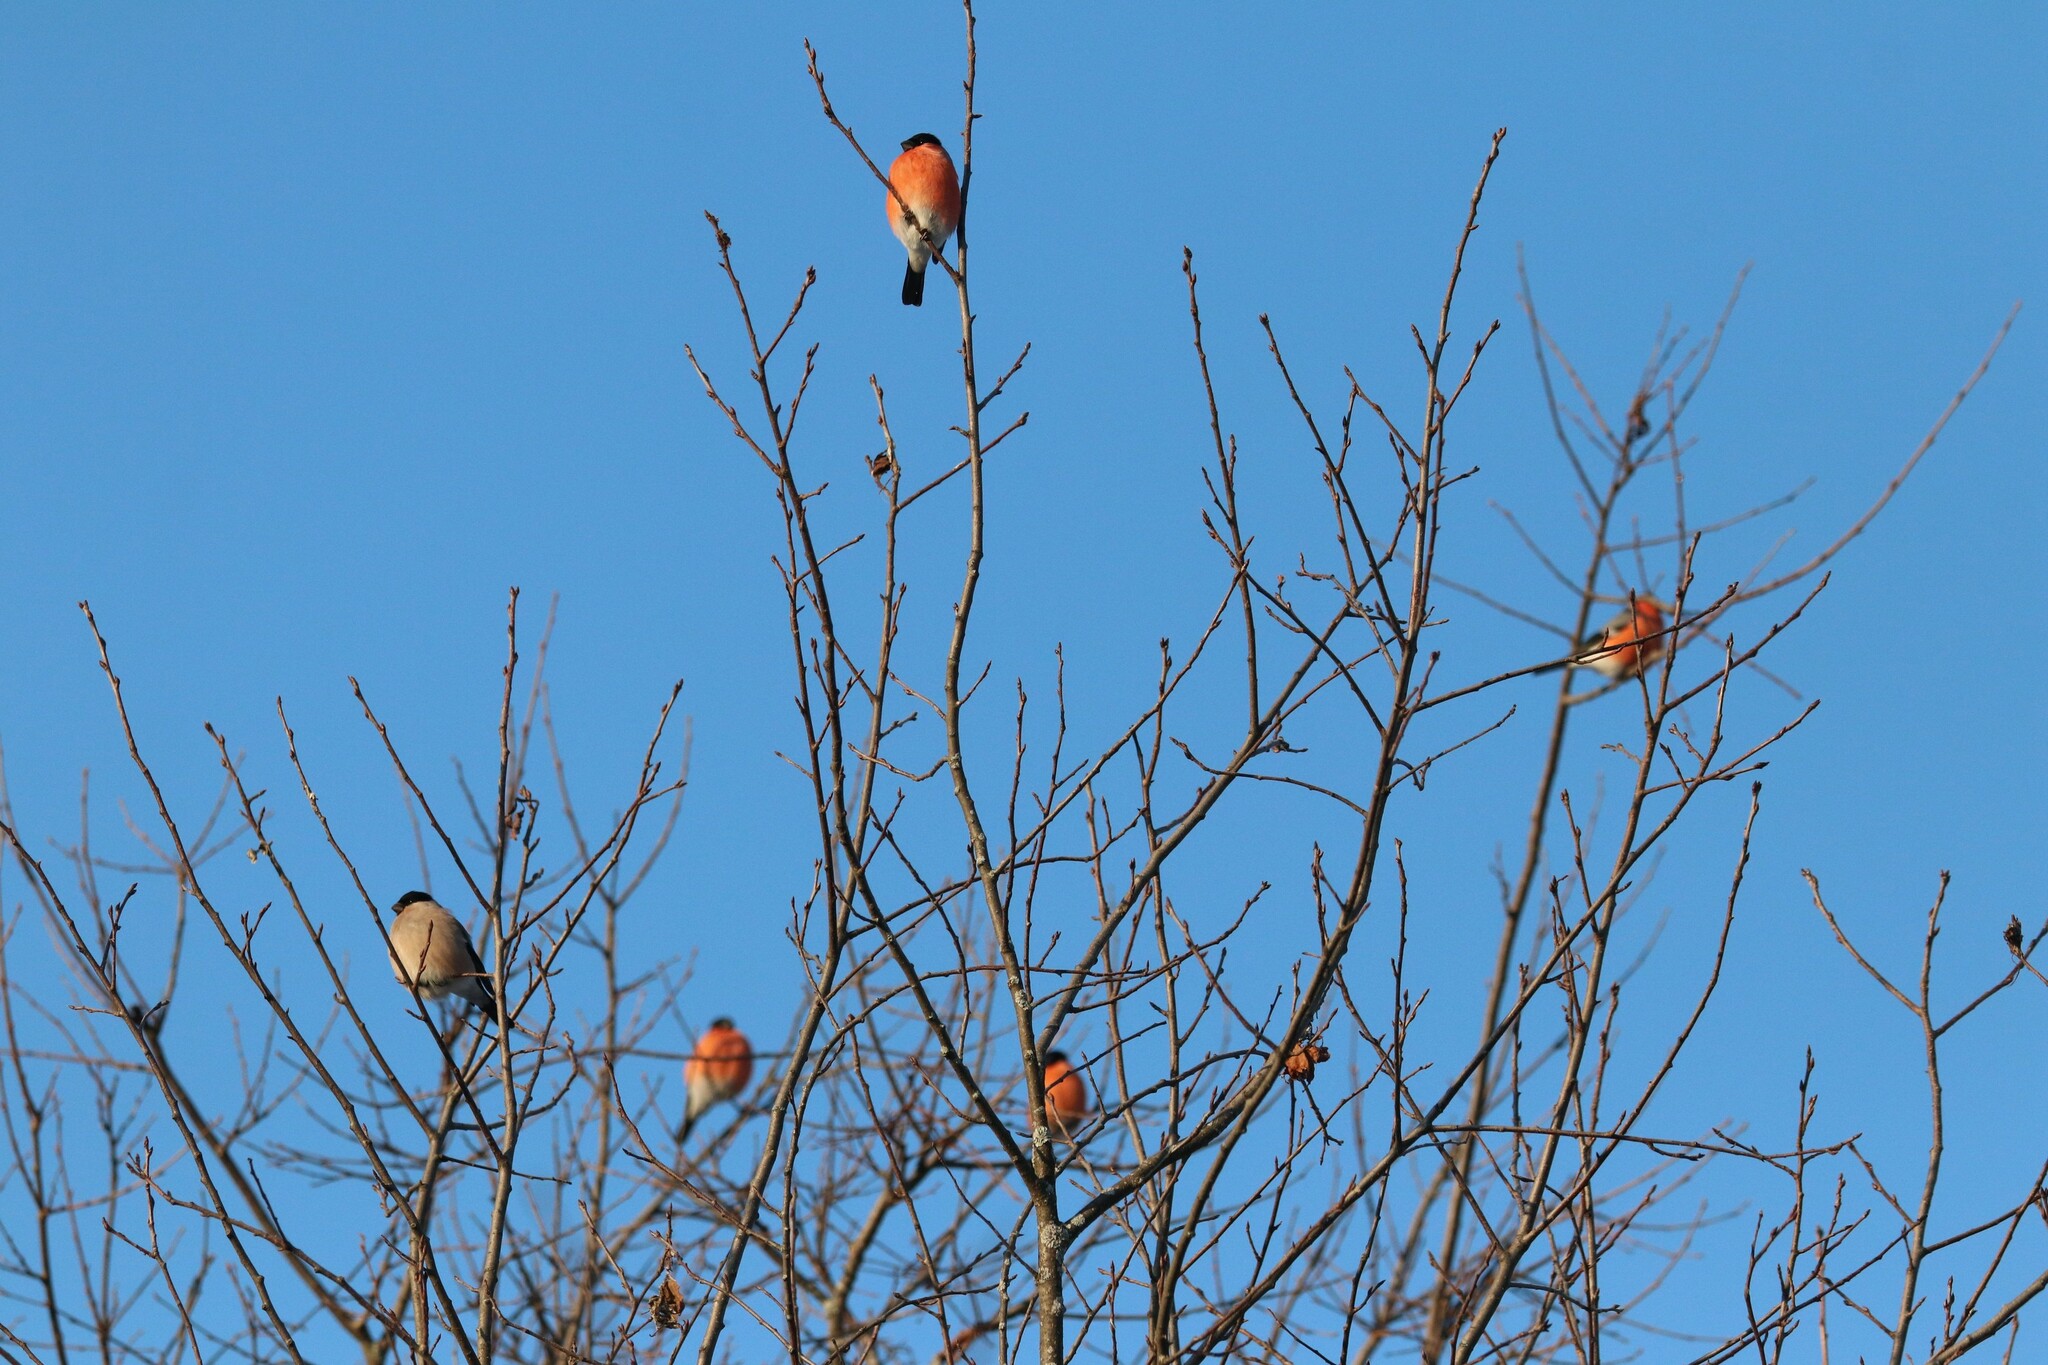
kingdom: Animalia
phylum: Chordata
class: Aves
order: Passeriformes
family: Fringillidae
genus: Pyrrhula
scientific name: Pyrrhula pyrrhula
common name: Eurasian bullfinch
